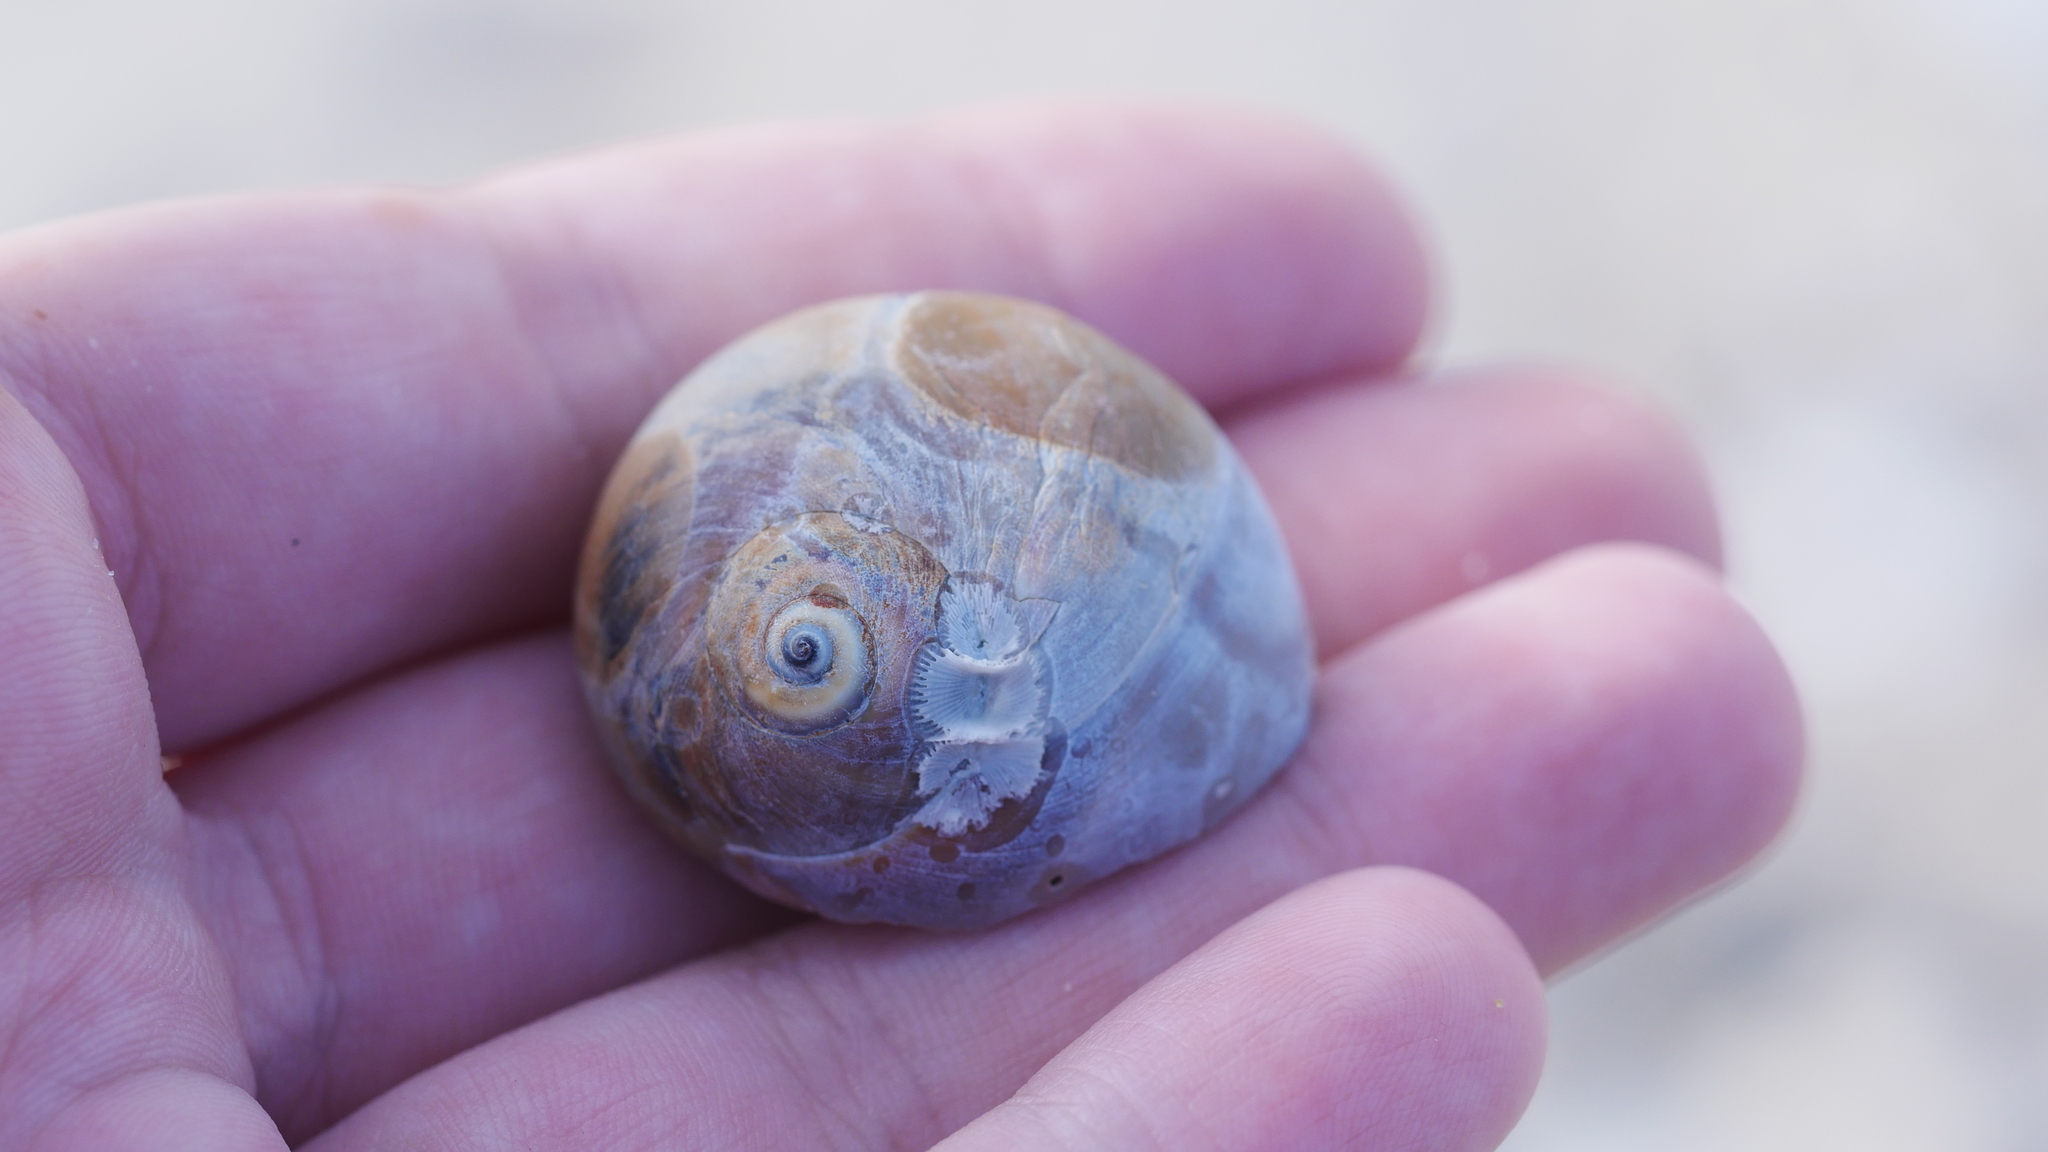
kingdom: Animalia
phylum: Mollusca
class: Gastropoda
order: Littorinimorpha
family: Naticidae
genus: Neverita
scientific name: Neverita duplicata
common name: Lobed moonsnail
